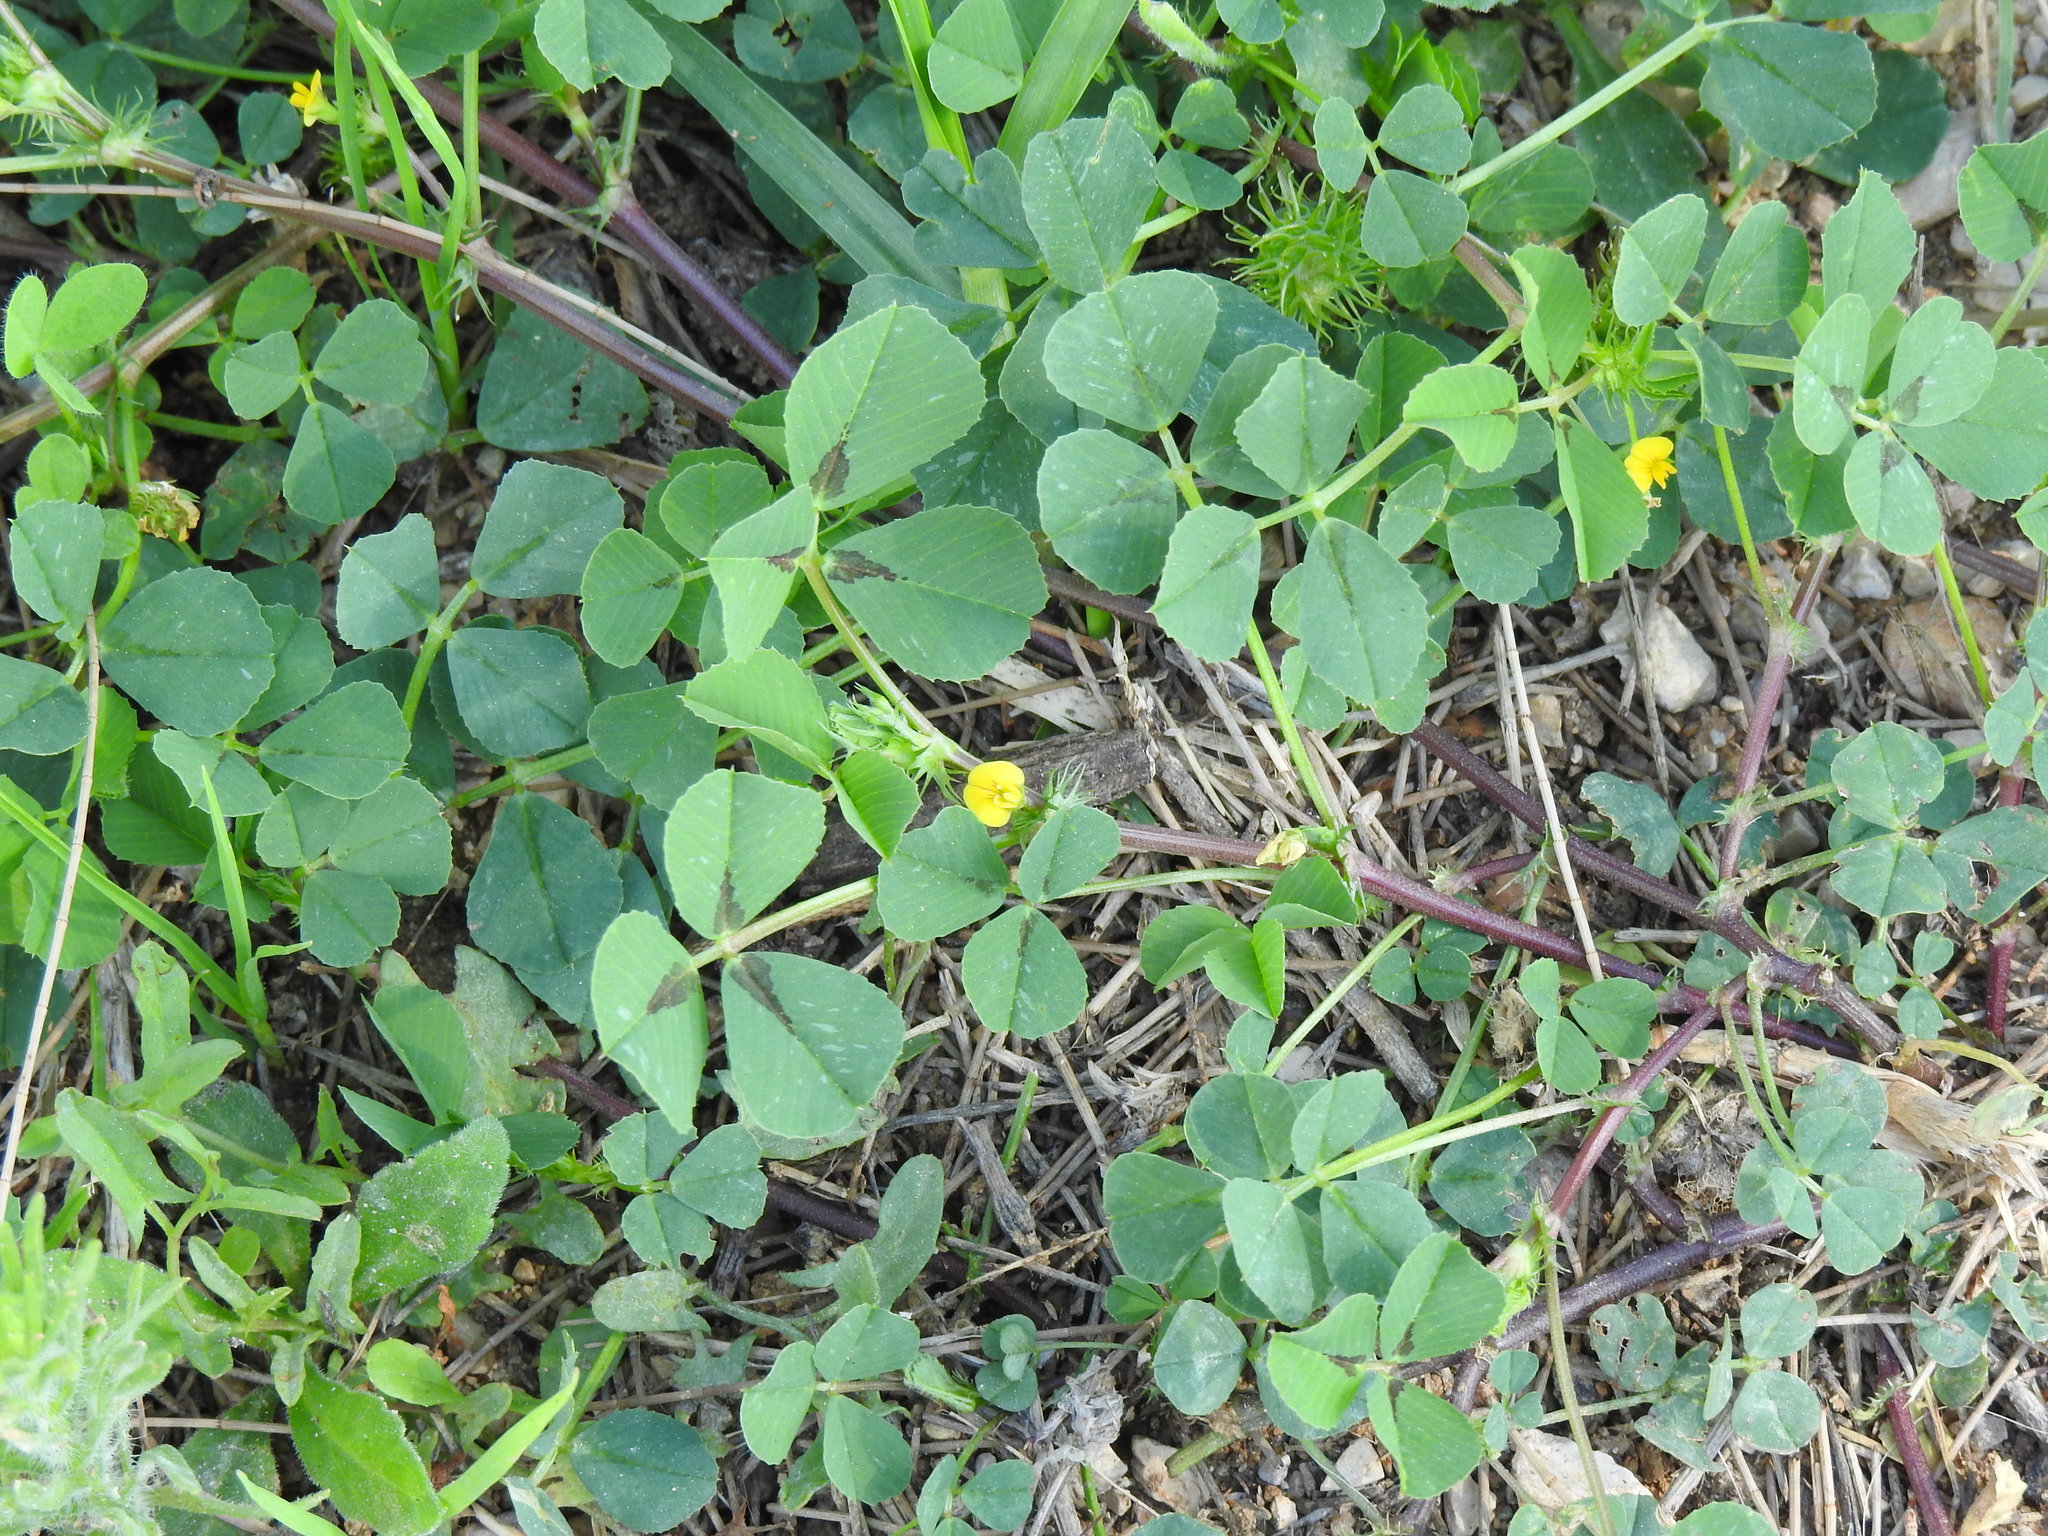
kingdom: Plantae
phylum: Tracheophyta
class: Magnoliopsida
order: Fabales
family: Fabaceae
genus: Medicago
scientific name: Medicago polymorpha
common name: Burclover
